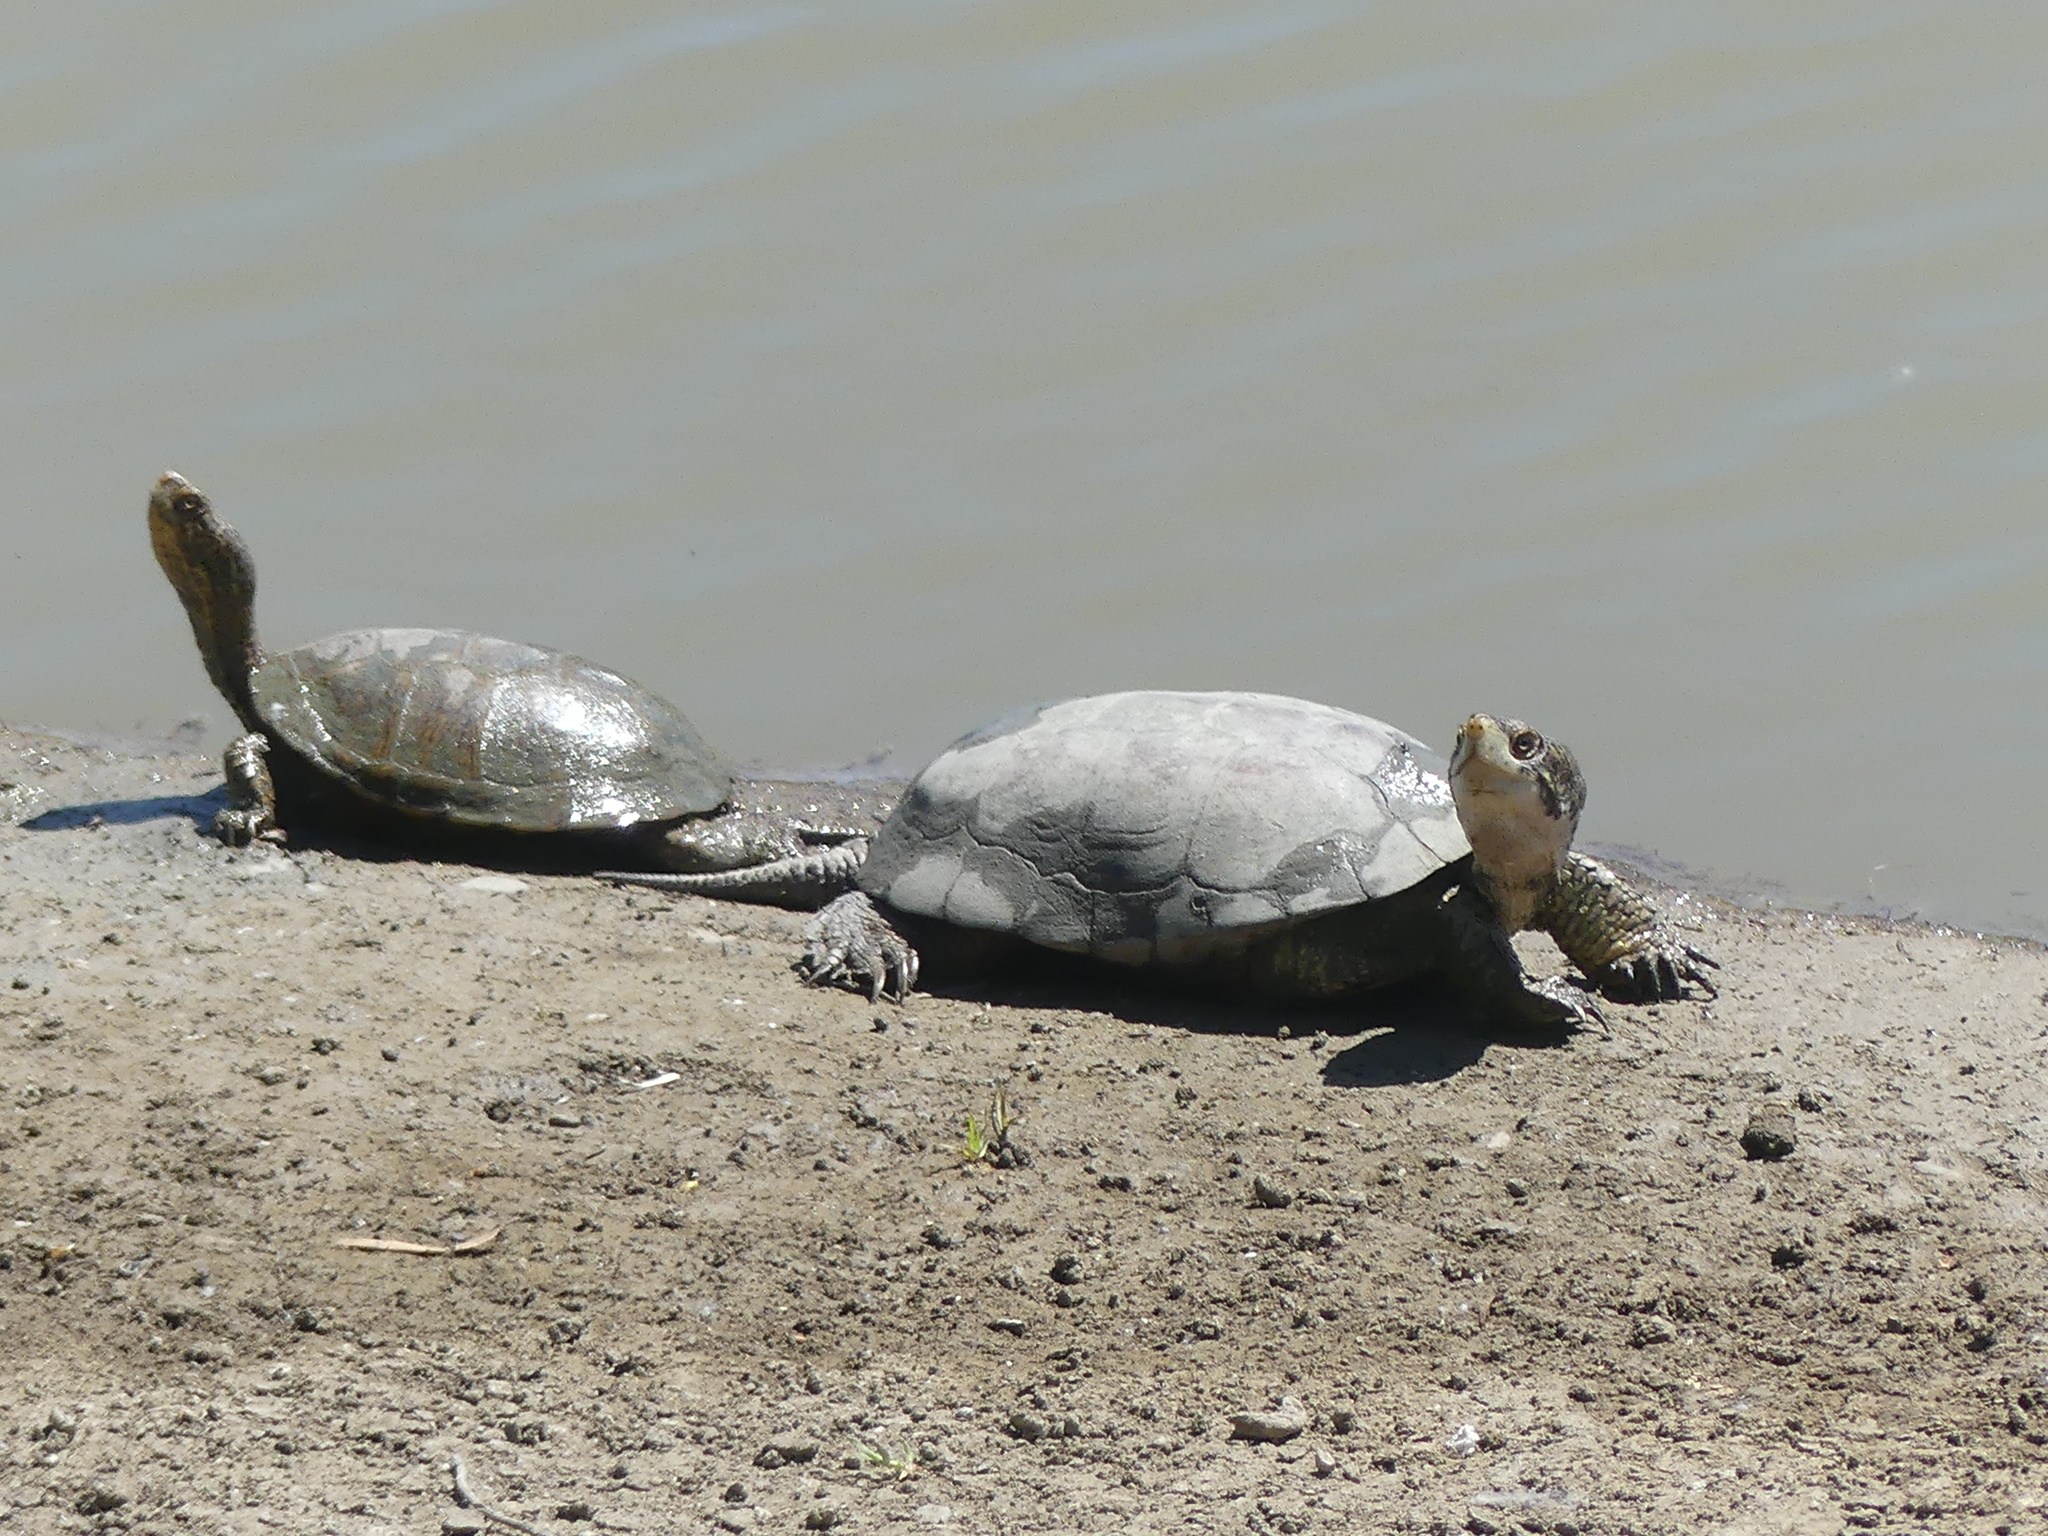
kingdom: Animalia
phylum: Chordata
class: Testudines
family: Emydidae
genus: Actinemys
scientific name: Actinemys marmorata
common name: Western pond turtle
